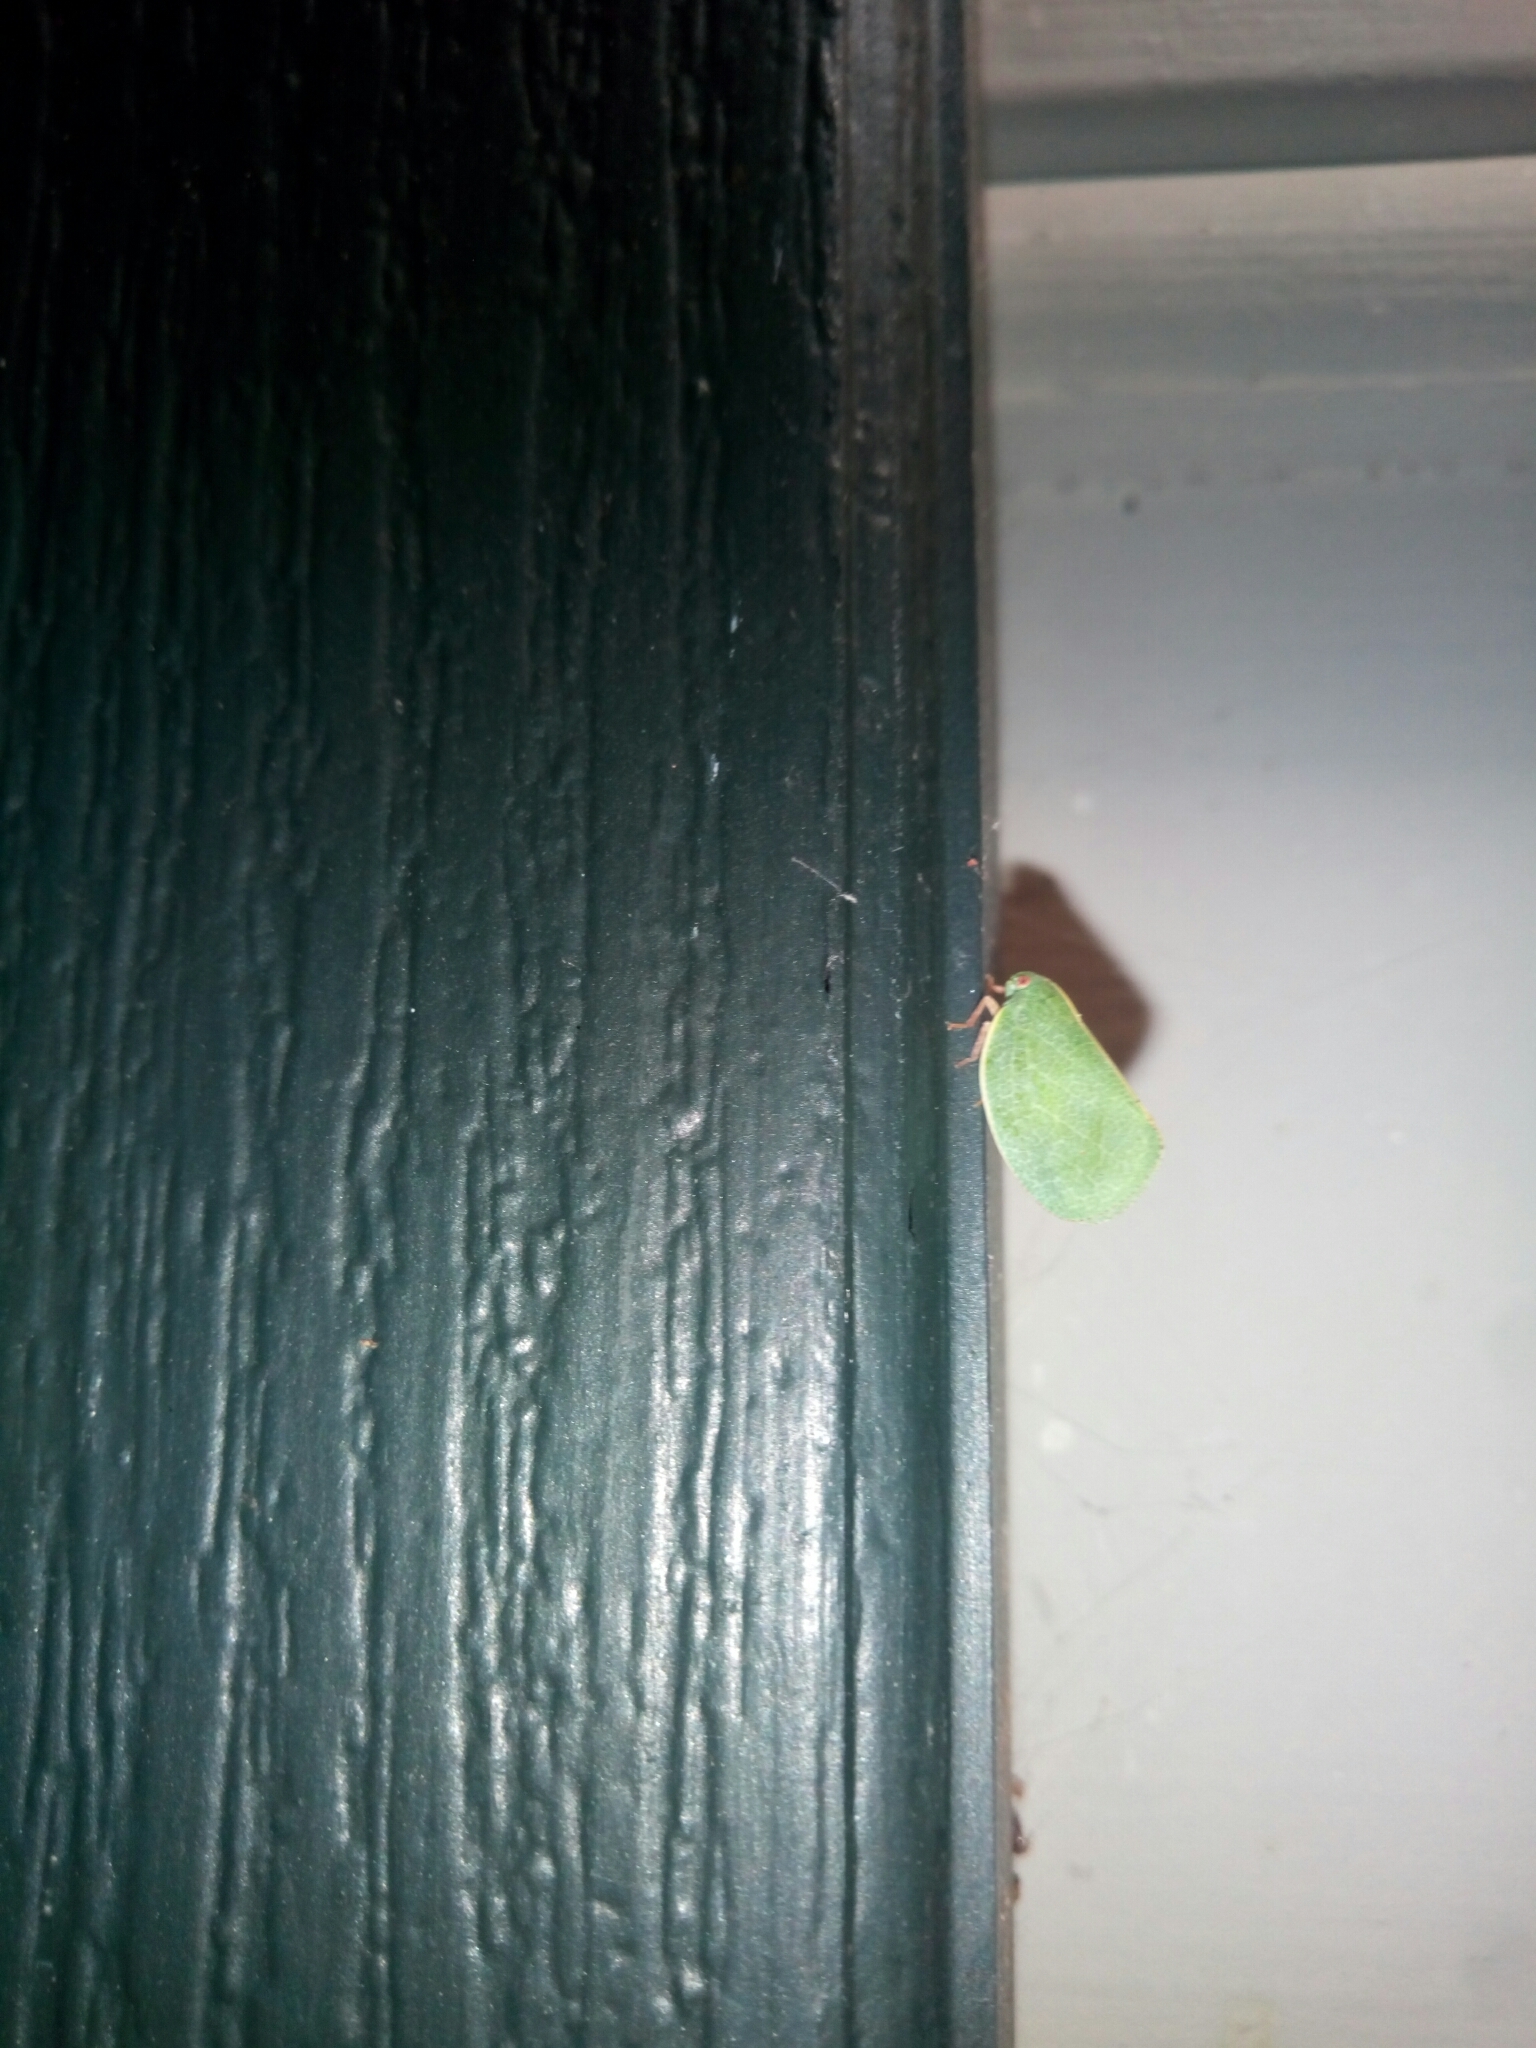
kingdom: Animalia
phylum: Arthropoda
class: Insecta
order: Hemiptera
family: Acanaloniidae
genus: Acanalonia
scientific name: Acanalonia servillei
